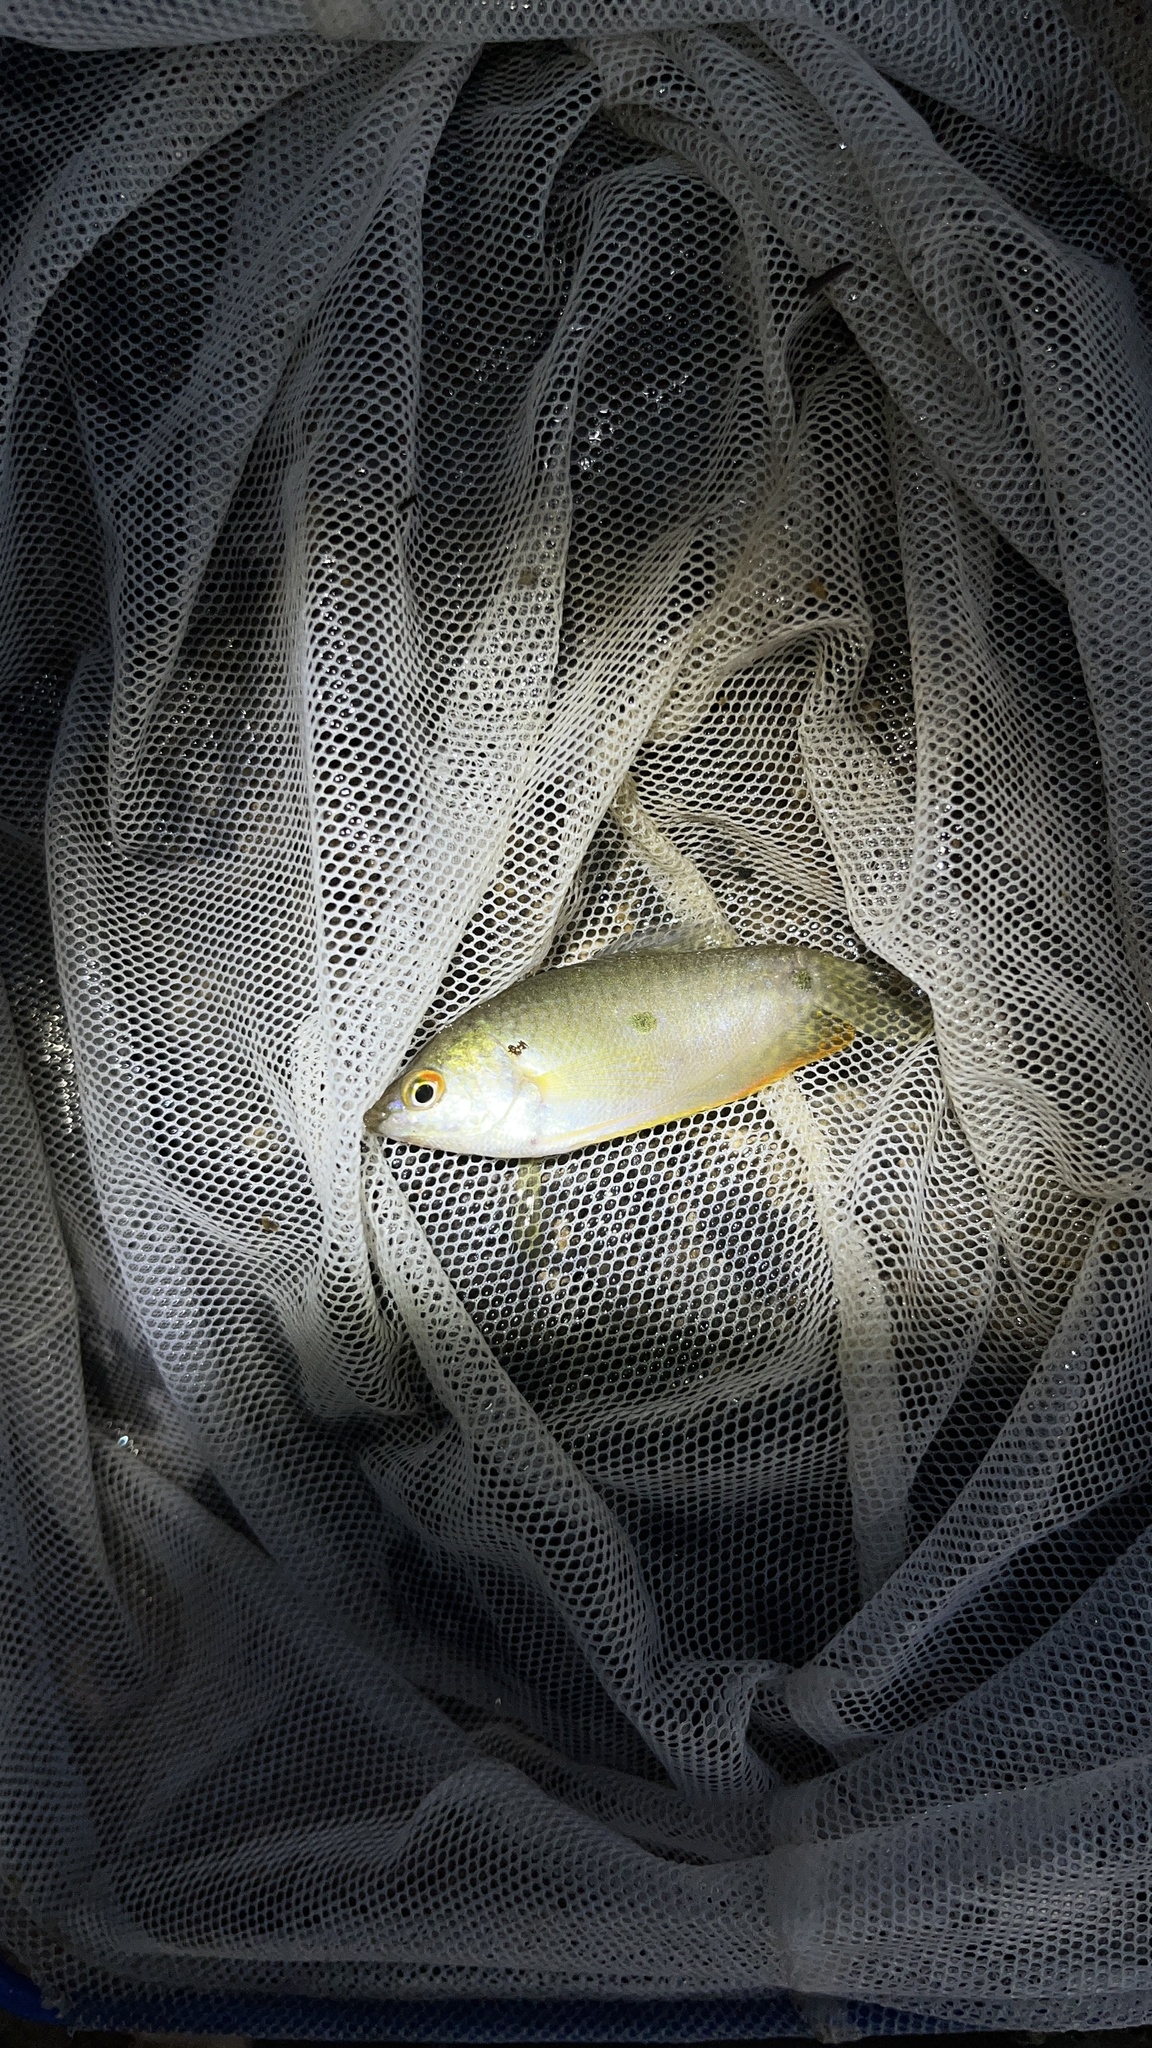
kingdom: Animalia
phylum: Chordata
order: Perciformes
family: Osphronemidae
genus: Trichopodus
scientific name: Trichopodus trichopterus
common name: Blue gourami
